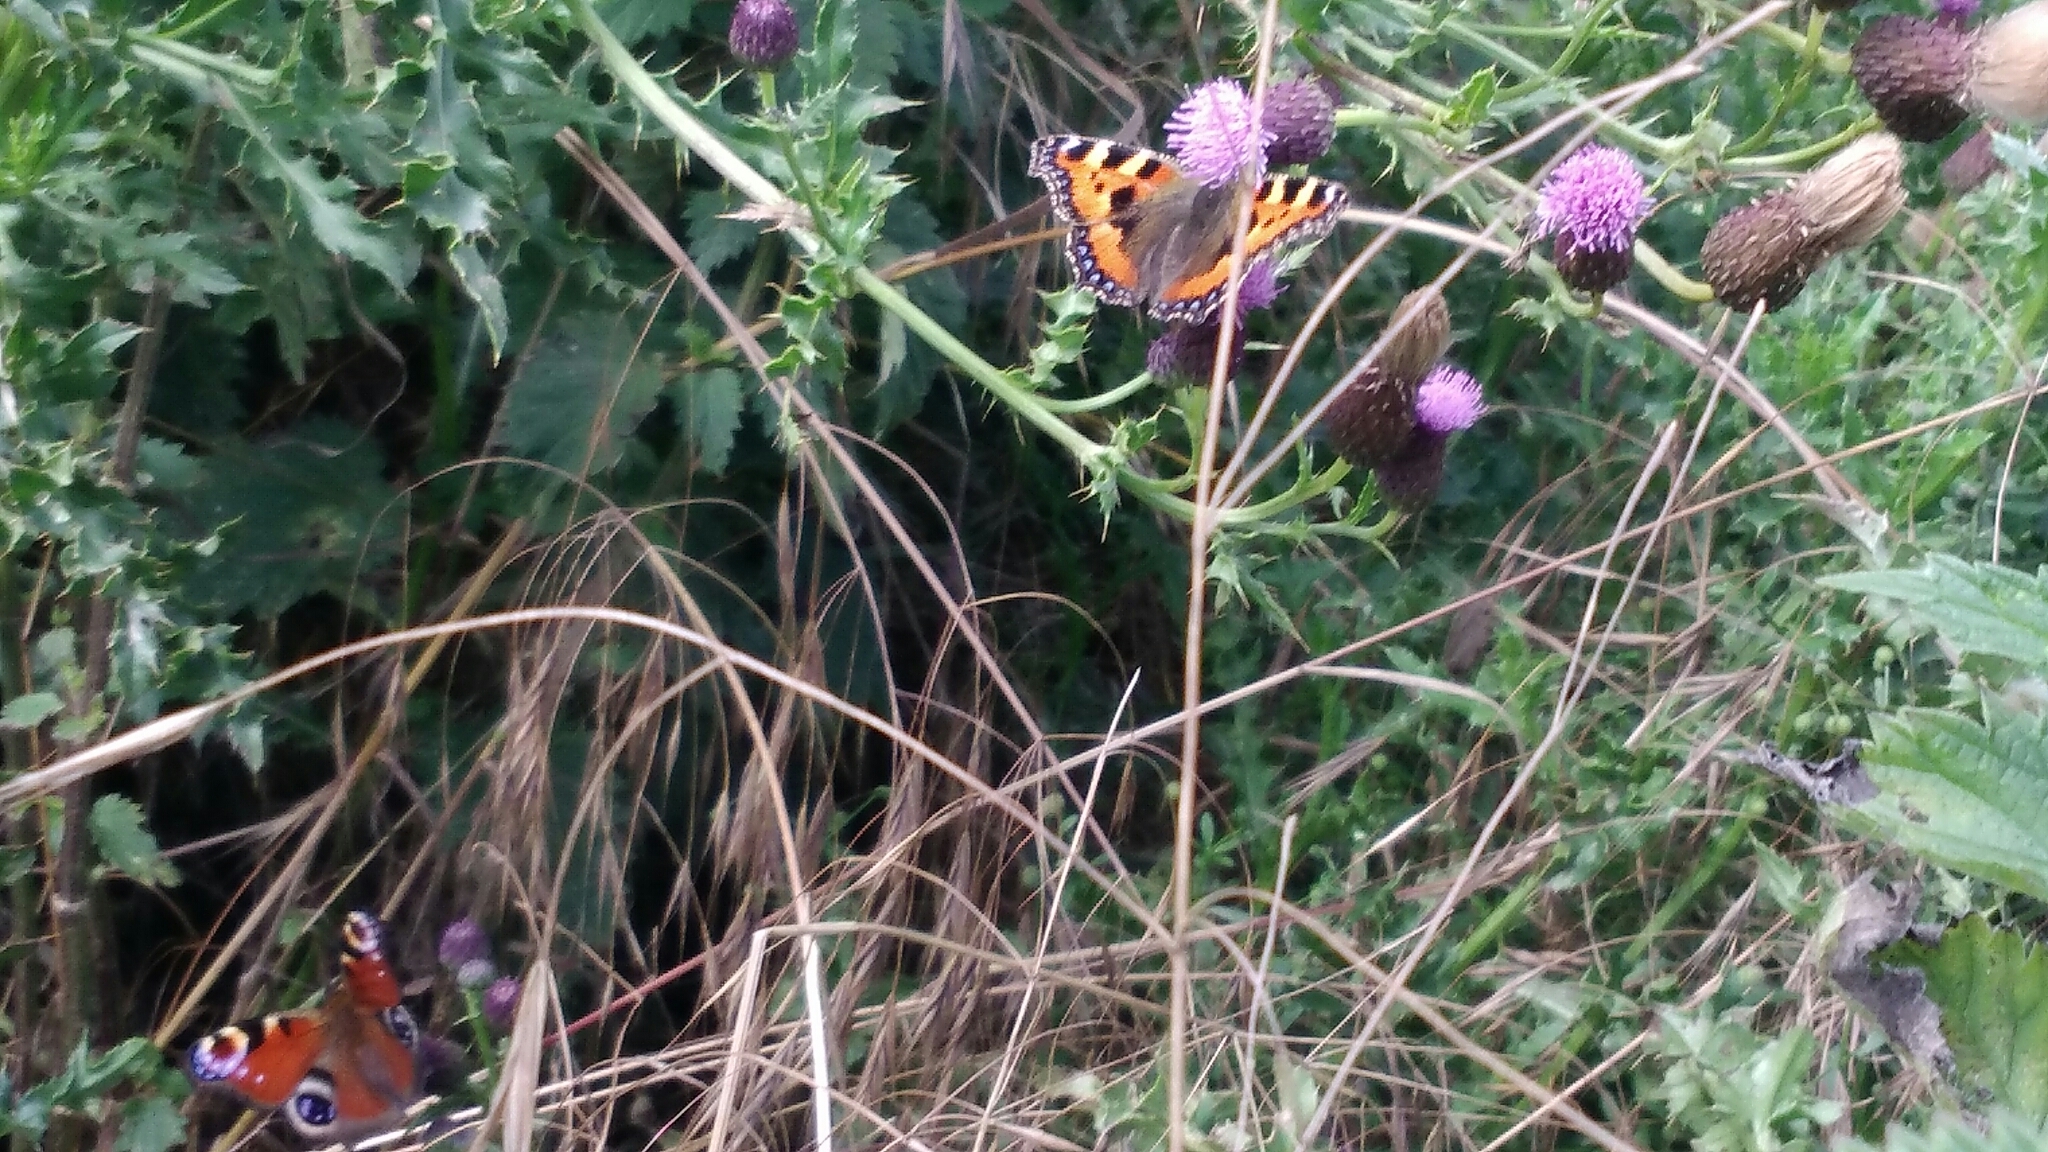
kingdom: Animalia
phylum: Arthropoda
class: Insecta
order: Lepidoptera
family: Nymphalidae
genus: Aglais
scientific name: Aglais urticae
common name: Small tortoiseshell
